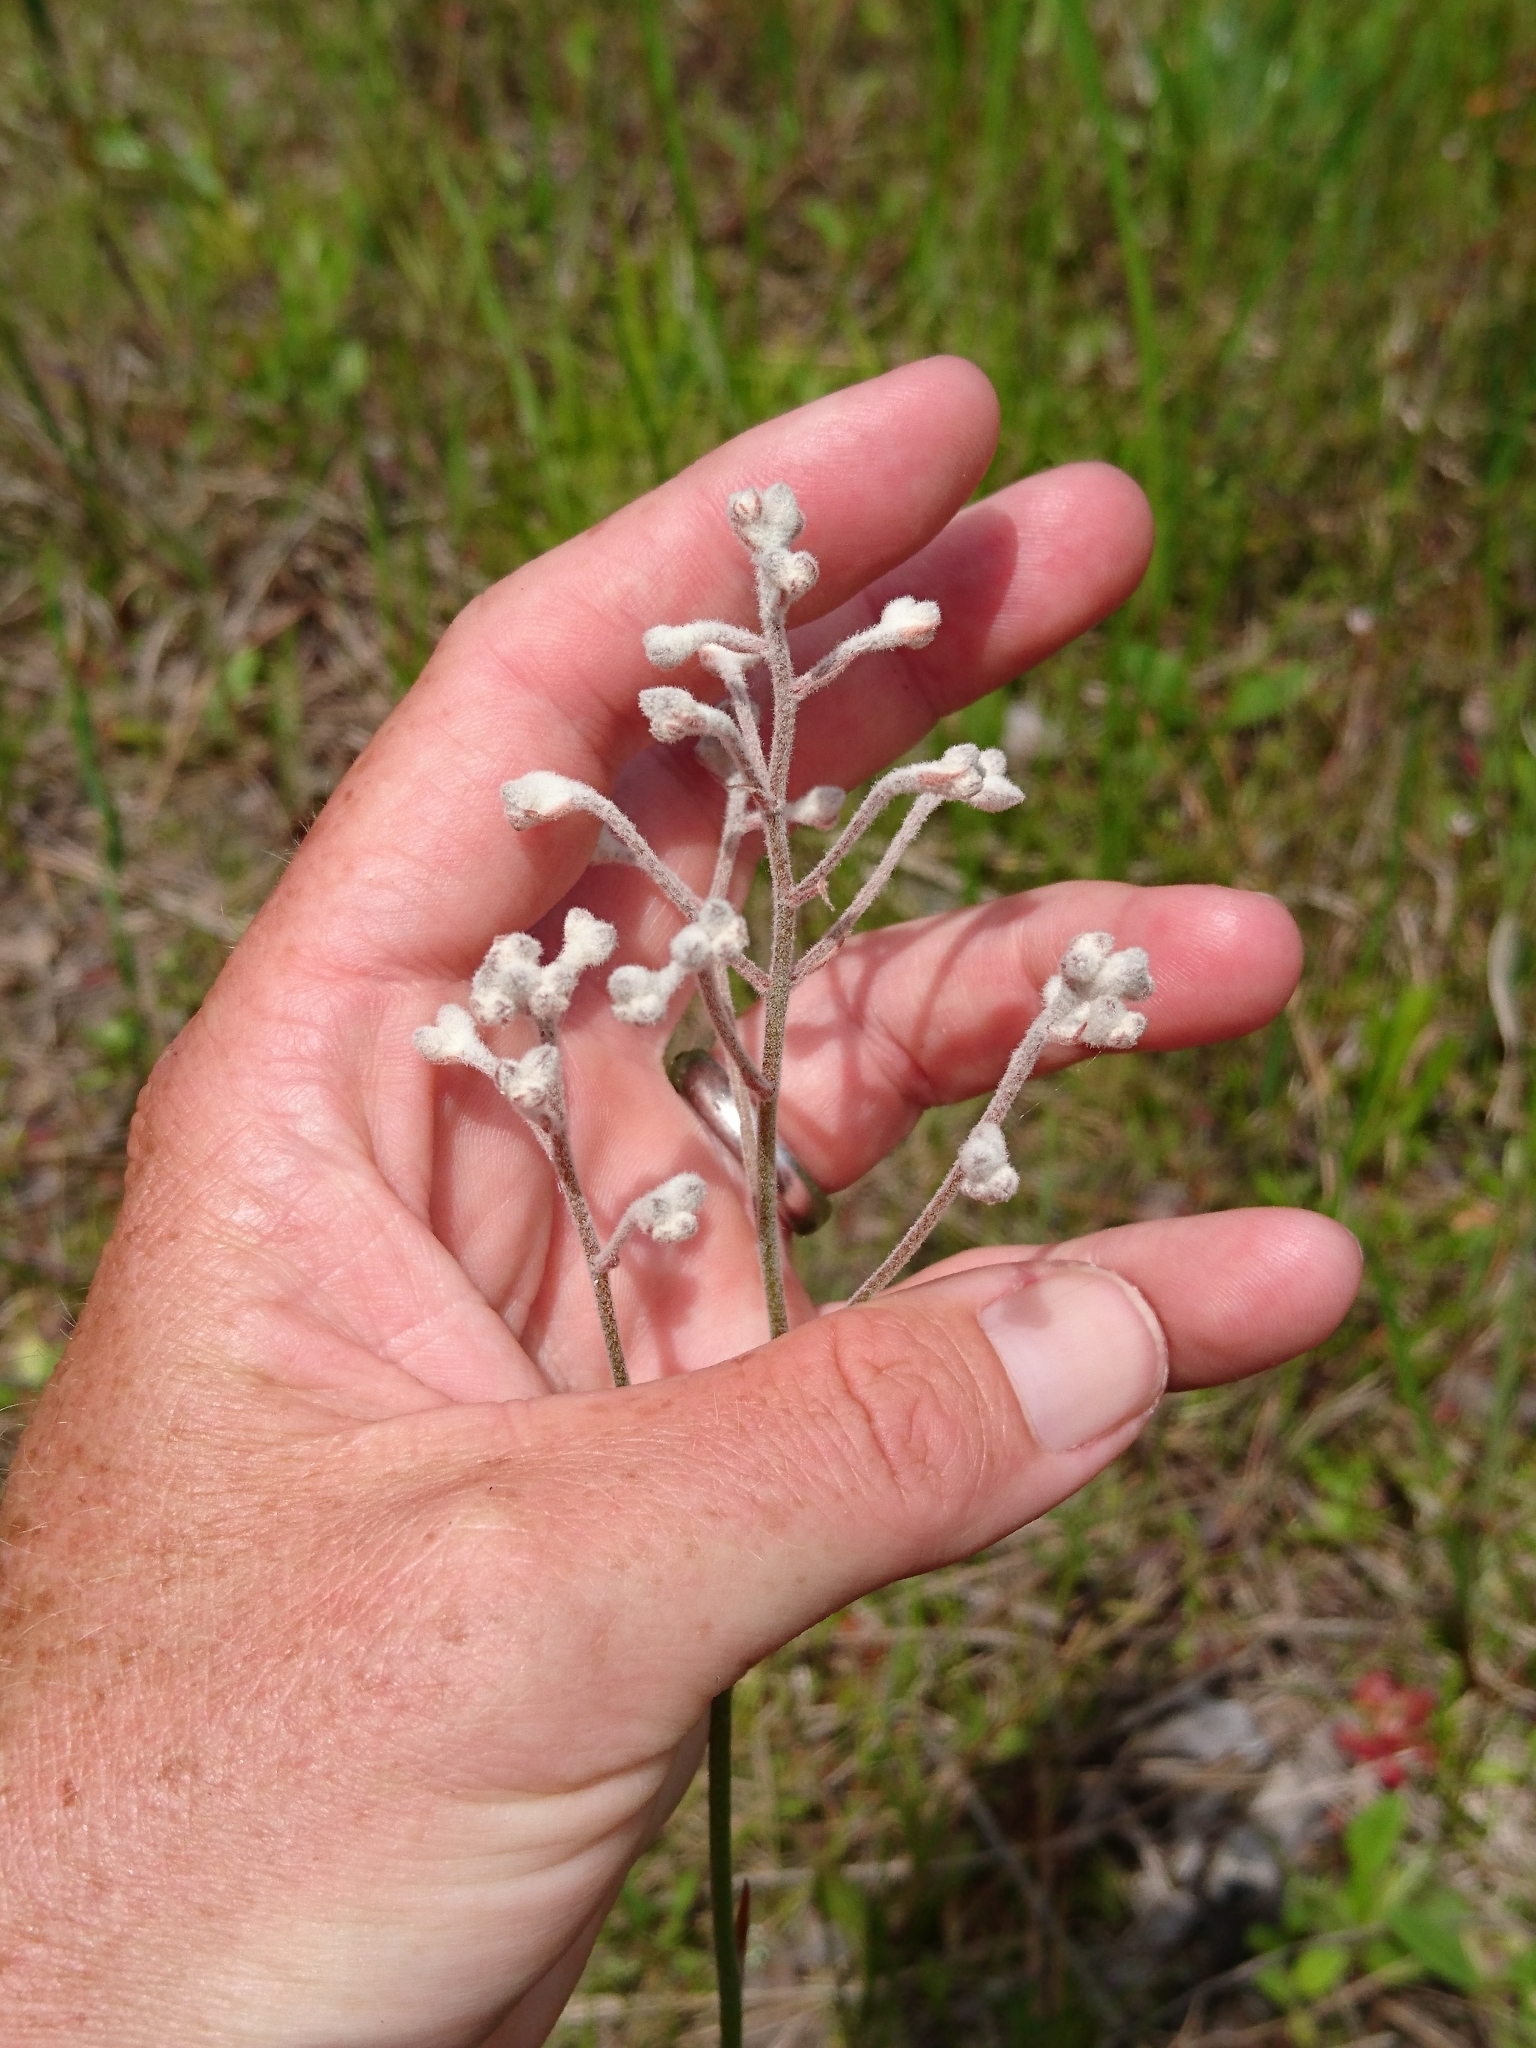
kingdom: Plantae
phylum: Tracheophyta
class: Liliopsida
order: Dioscoreales
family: Nartheciaceae
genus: Lophiola
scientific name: Lophiola aurea
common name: Golden-crest
